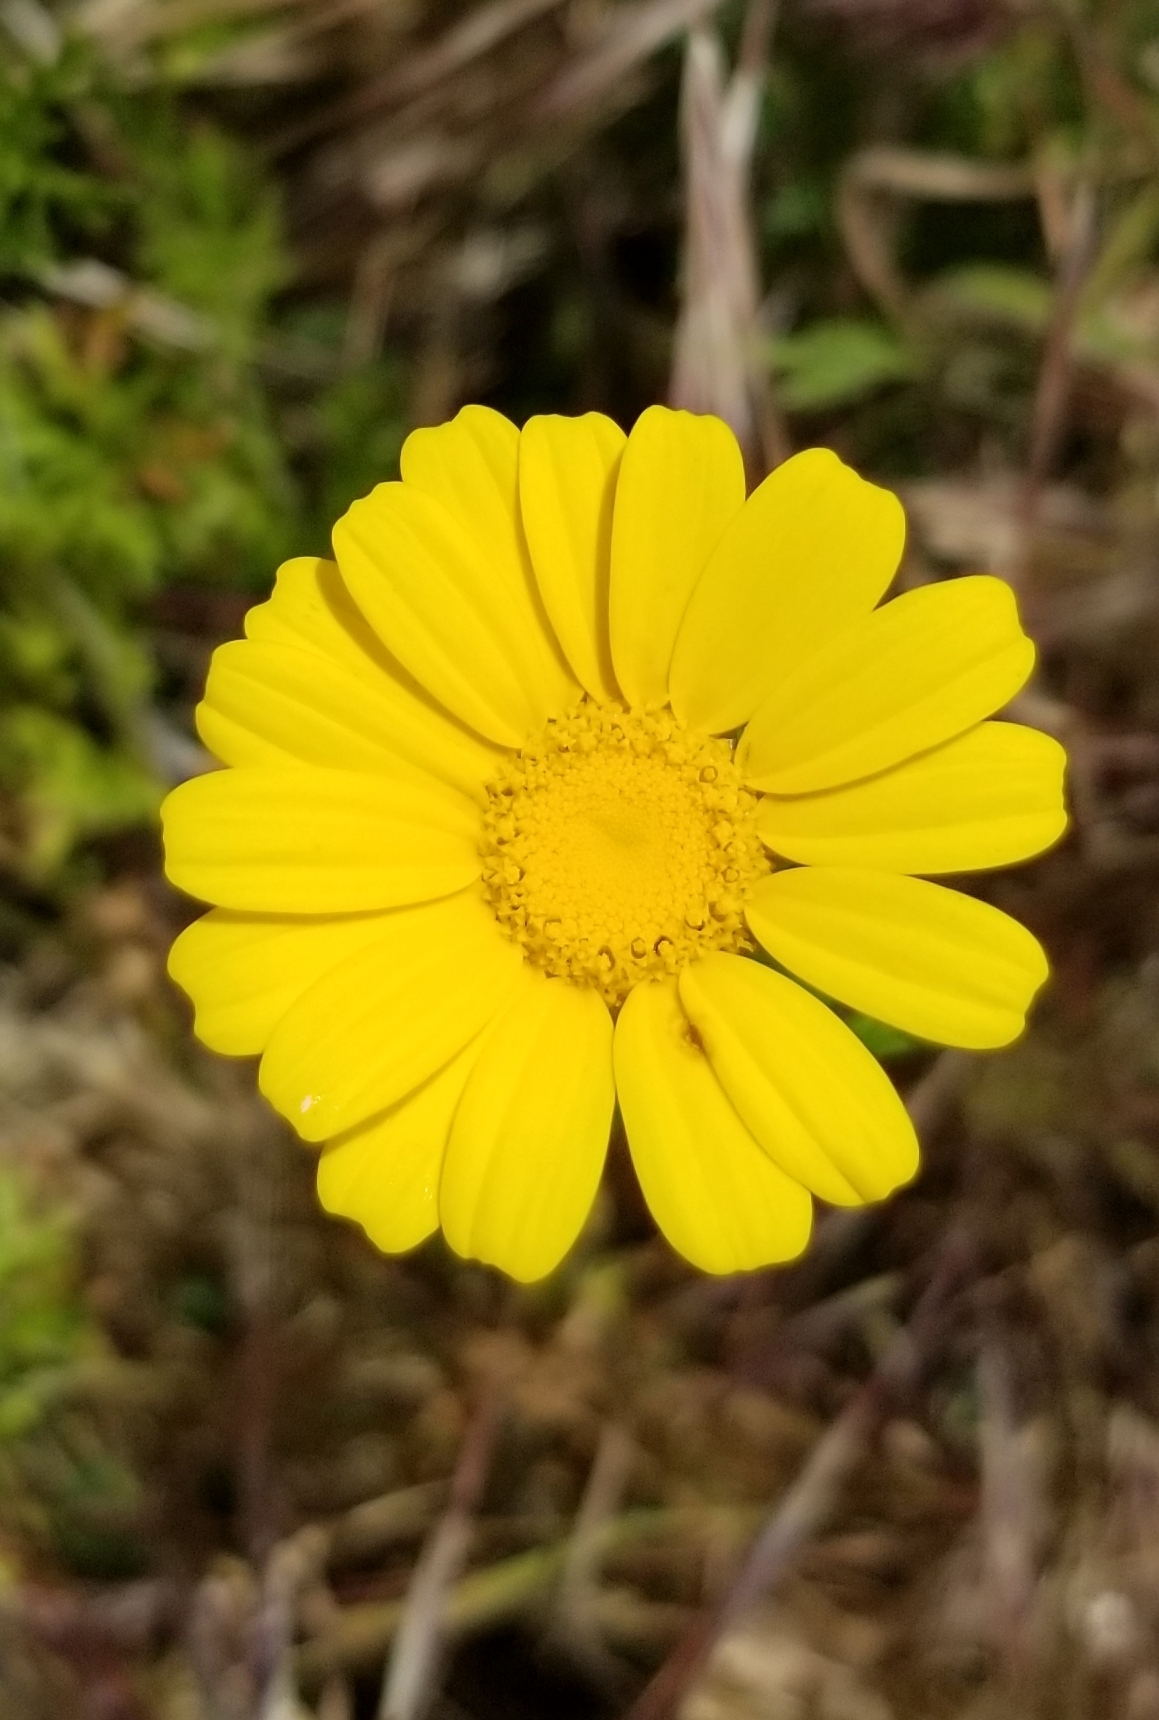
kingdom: Plantae
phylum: Tracheophyta
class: Magnoliopsida
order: Asterales
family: Asteraceae
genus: Glebionis
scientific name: Glebionis coronaria
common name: Crowndaisy
